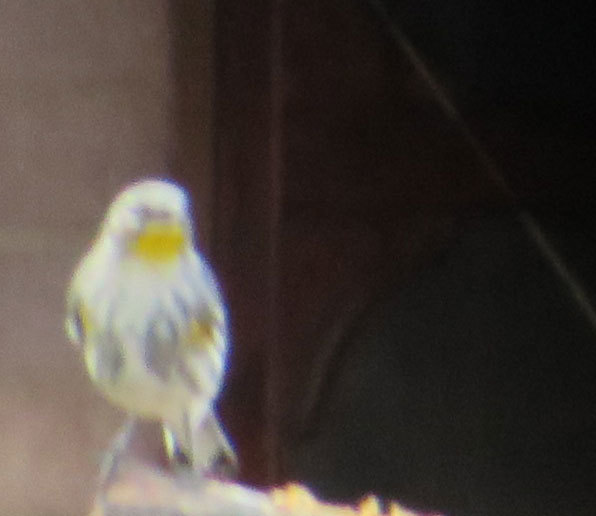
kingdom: Animalia
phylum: Chordata
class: Aves
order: Passeriformes
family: Parulidae
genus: Setophaga
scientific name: Setophaga coronata
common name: Myrtle warbler
